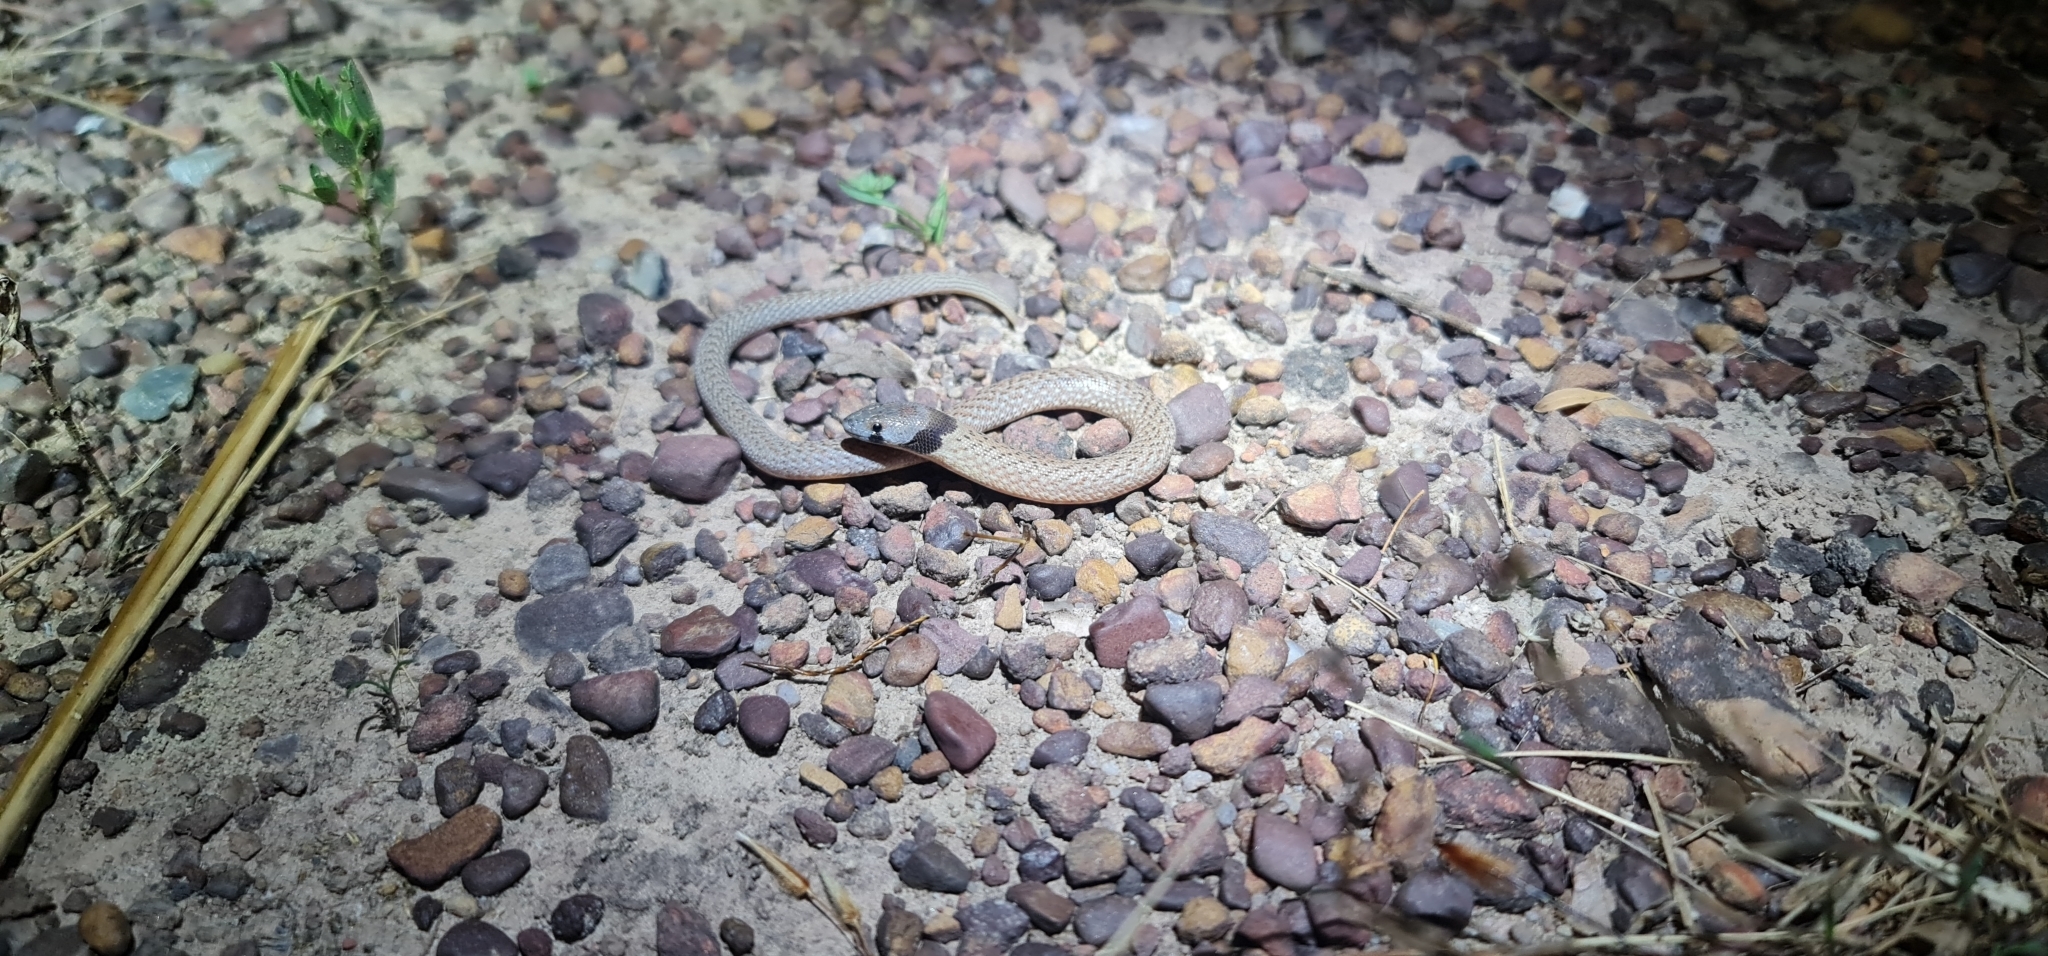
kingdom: Animalia
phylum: Chordata
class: Squamata
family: Pygopodidae
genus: Pygopus
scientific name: Pygopus steelescotti
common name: Northern hooded scaly-foot
